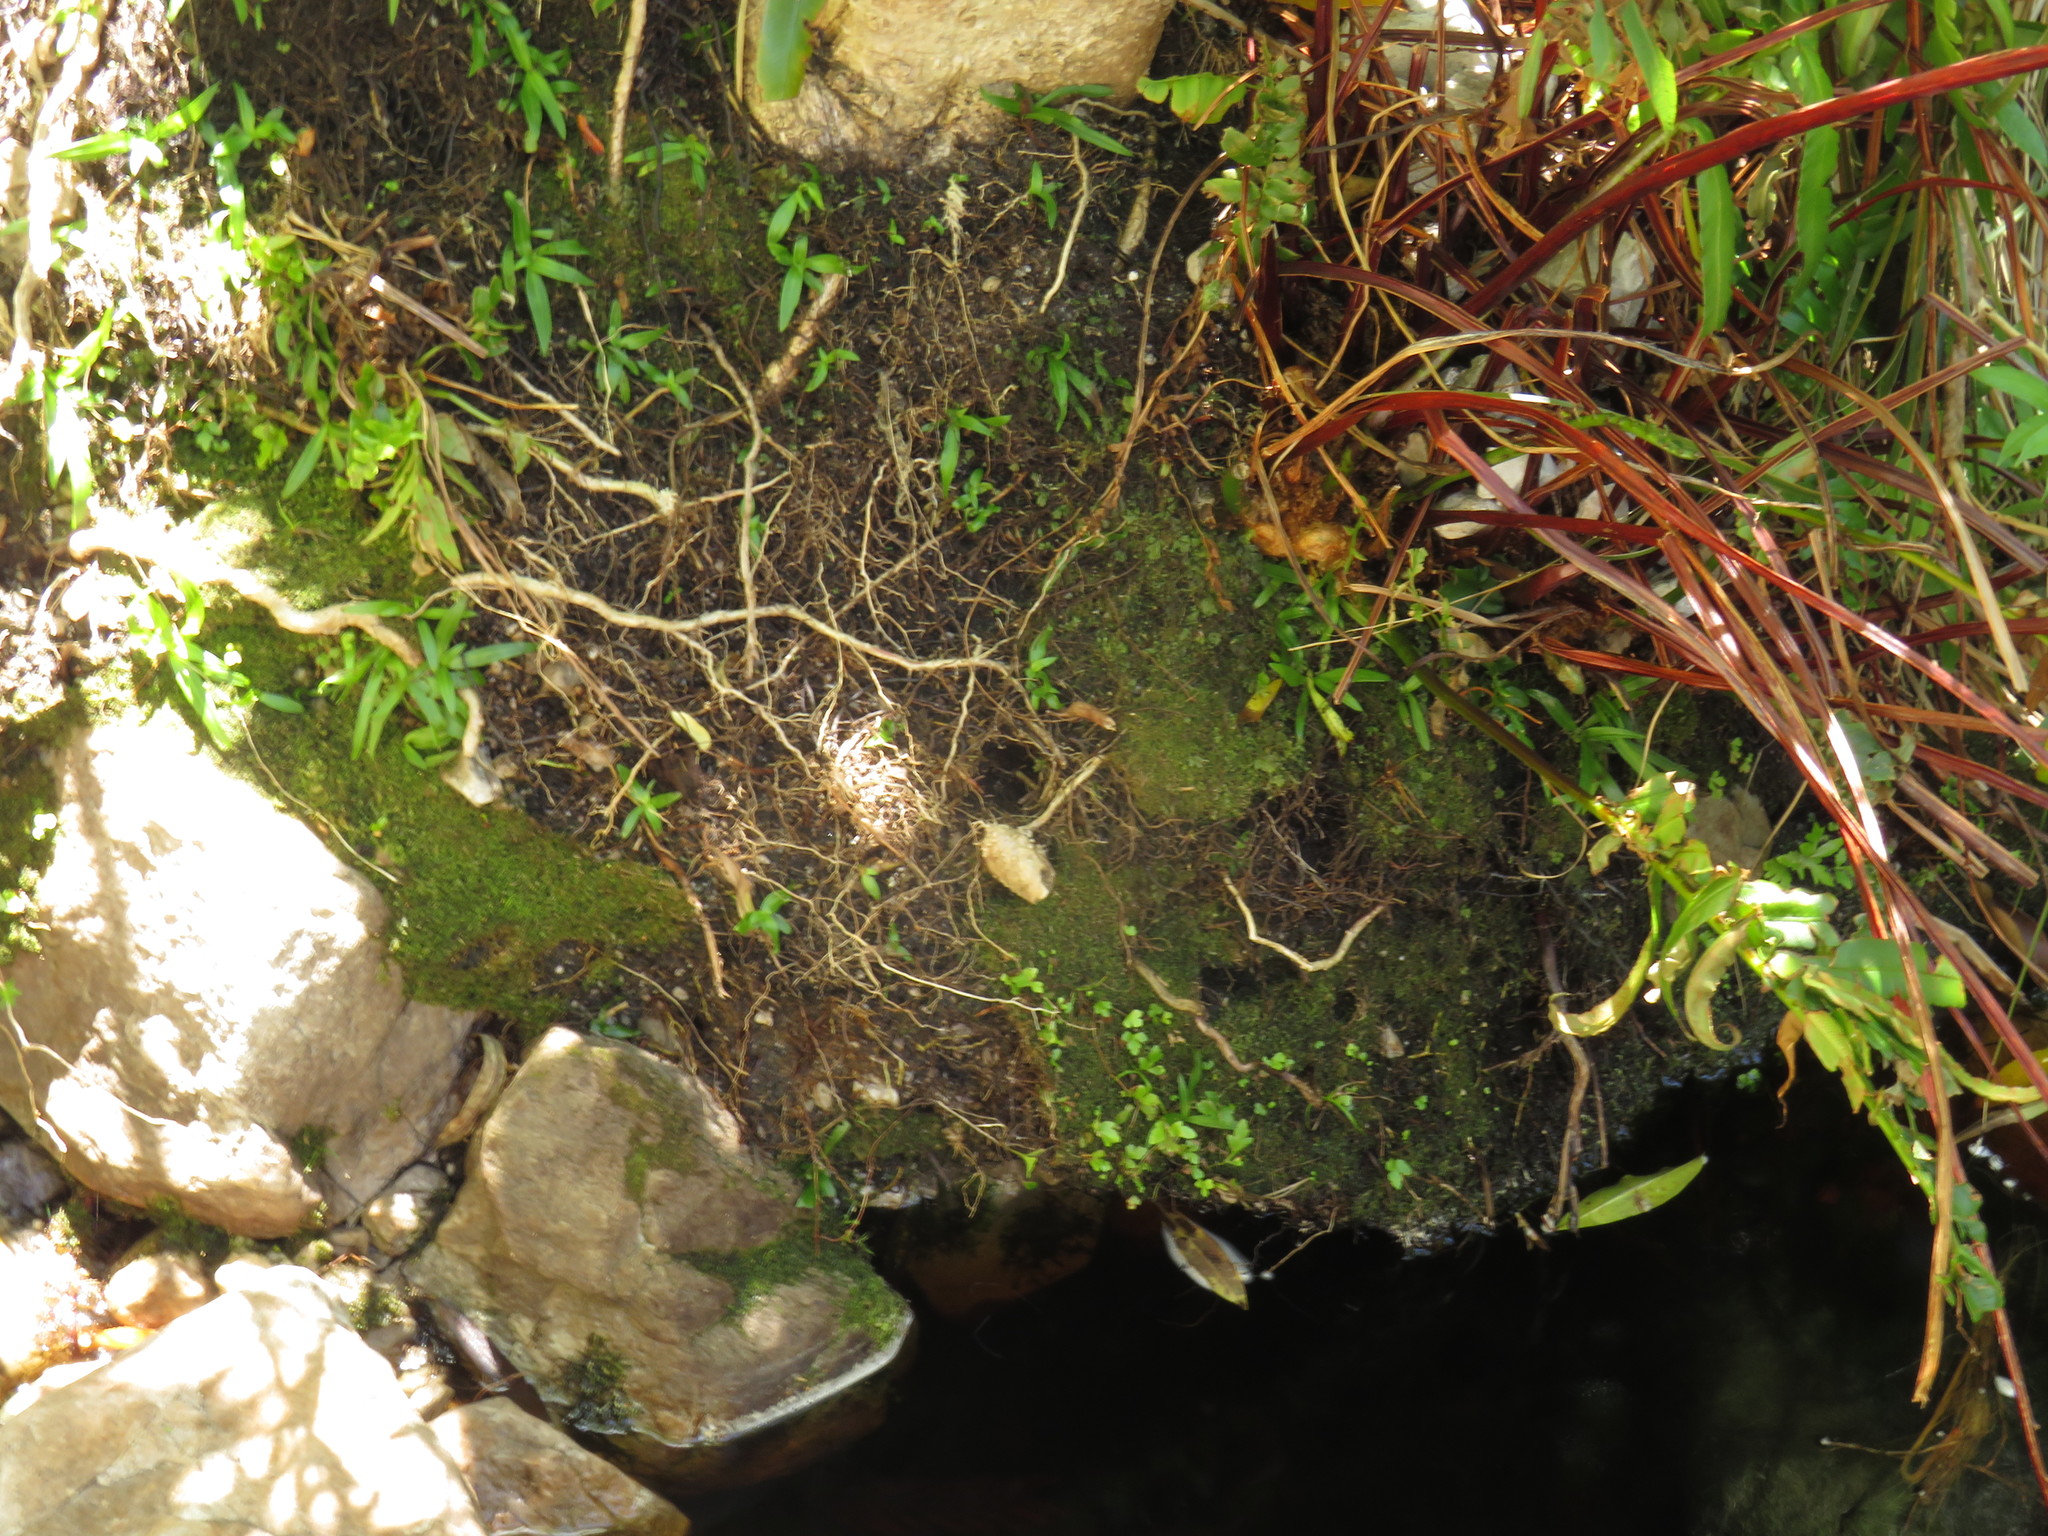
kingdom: Plantae
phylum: Tracheophyta
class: Liliopsida
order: Asparagales
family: Orchidaceae
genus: Disa
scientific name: Disa tripetaloides
